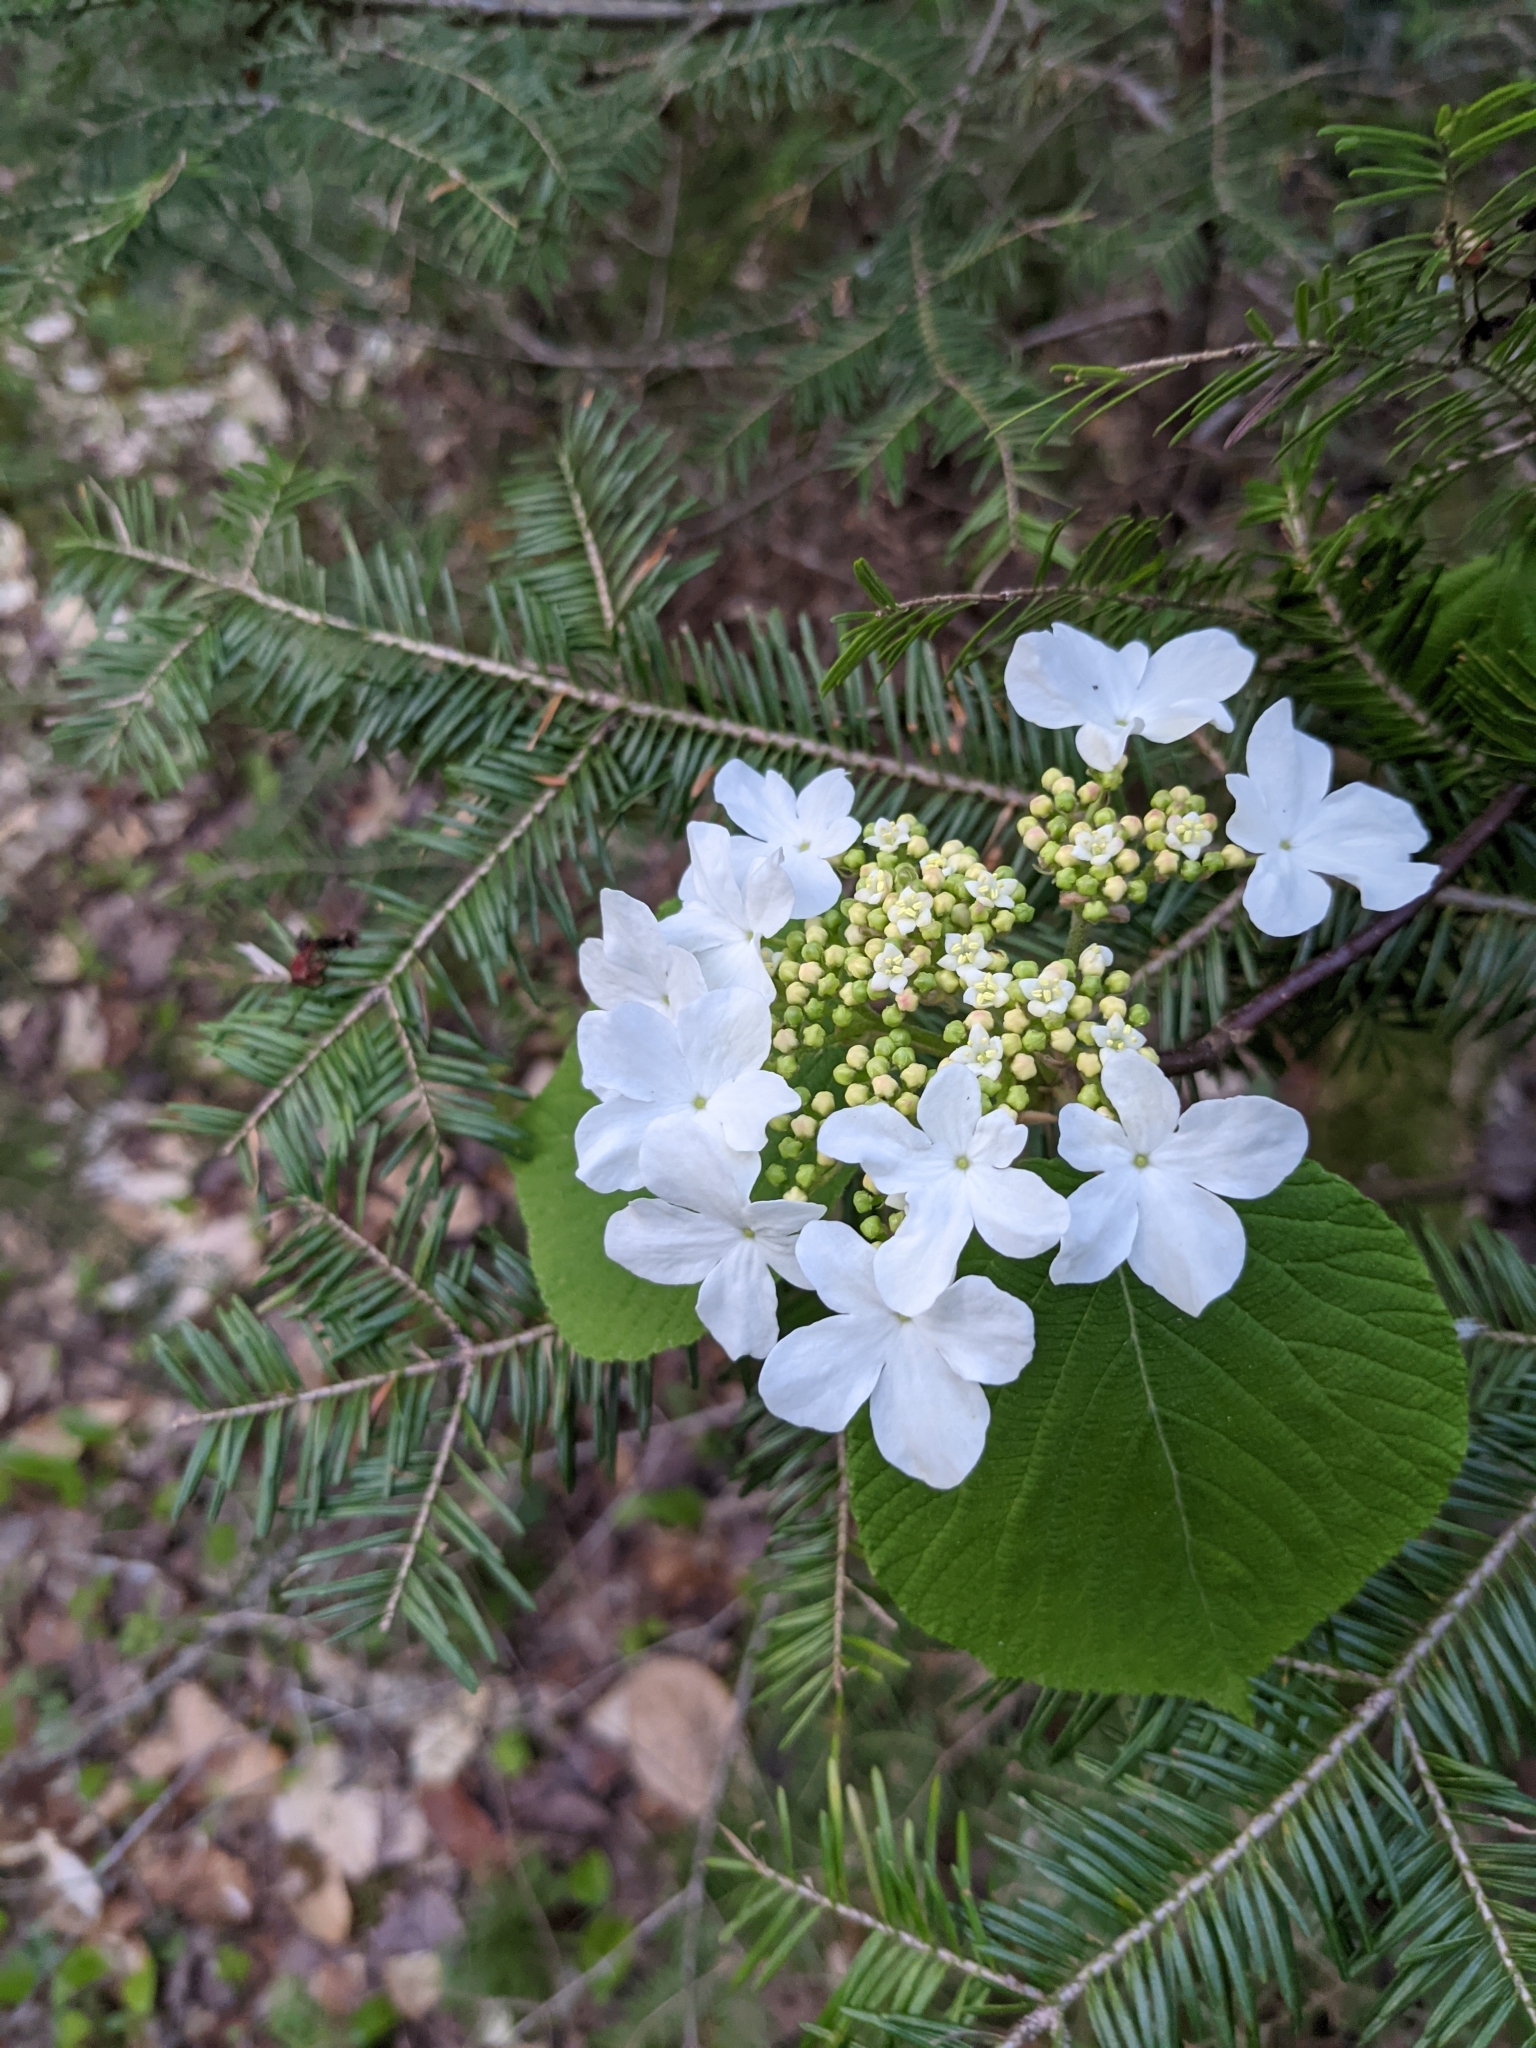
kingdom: Plantae
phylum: Tracheophyta
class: Magnoliopsida
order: Dipsacales
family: Viburnaceae
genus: Viburnum
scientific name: Viburnum lantanoides
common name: Hobblebush
